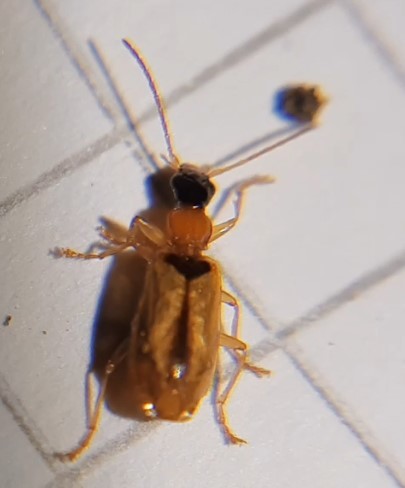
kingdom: Animalia
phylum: Arthropoda
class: Insecta
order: Coleoptera
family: Carabidae
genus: Demetrias
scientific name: Demetrias atricapillus
